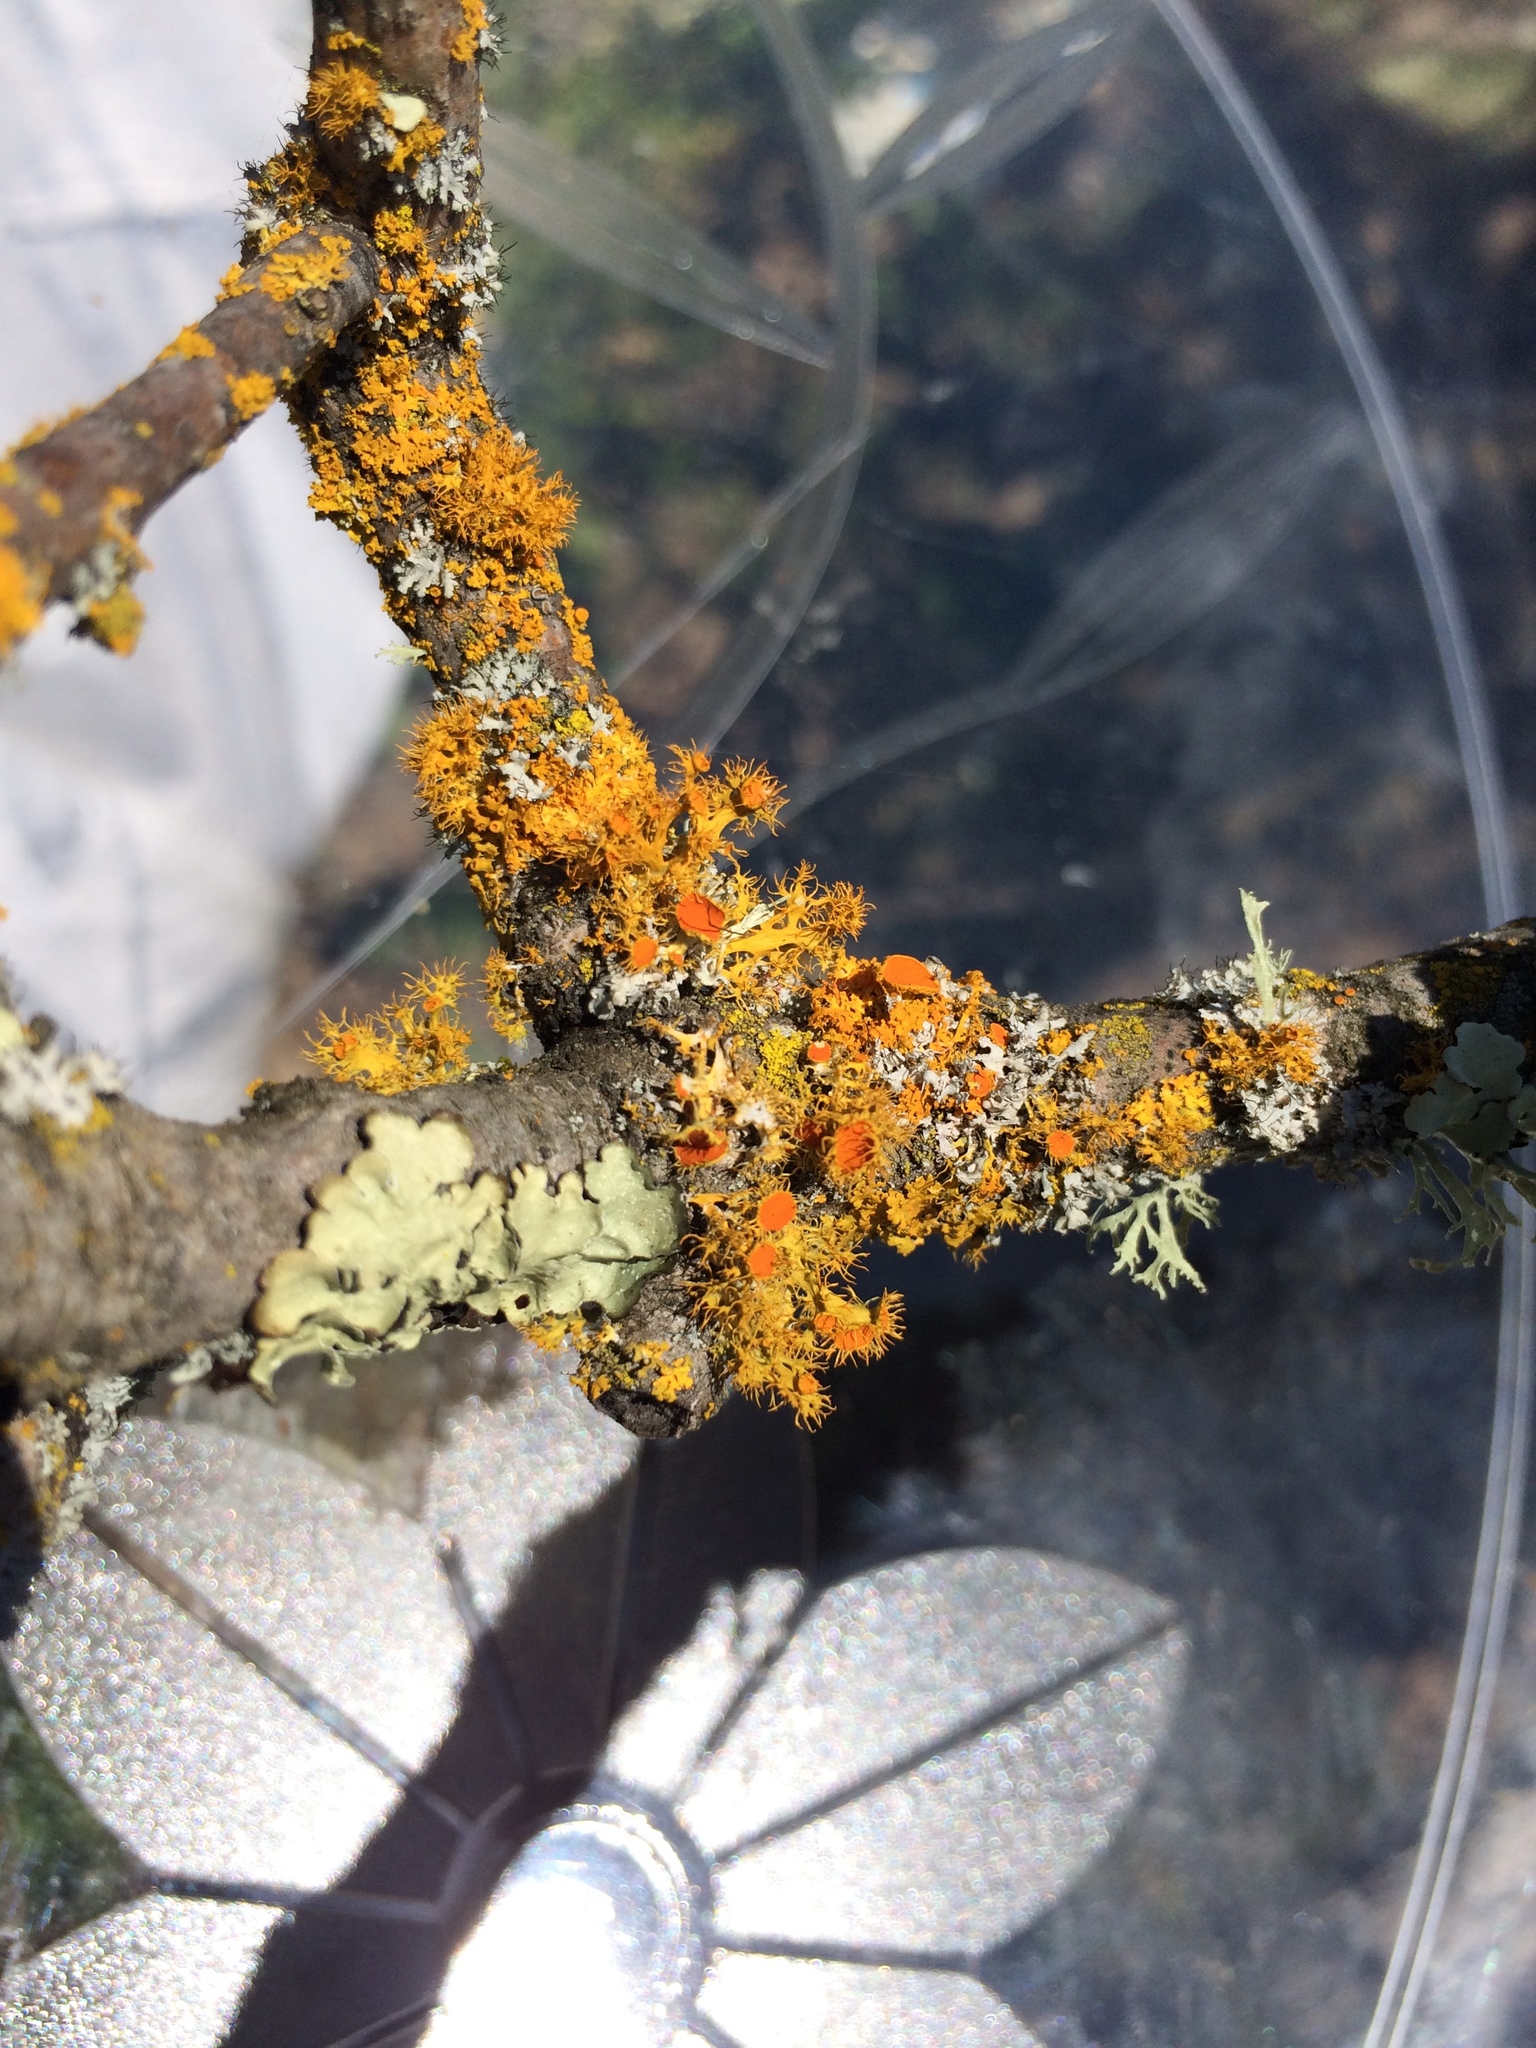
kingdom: Fungi
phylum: Ascomycota
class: Lecanoromycetes
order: Teloschistales
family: Teloschistaceae
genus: Niorma
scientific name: Niorma chrysophthalma
